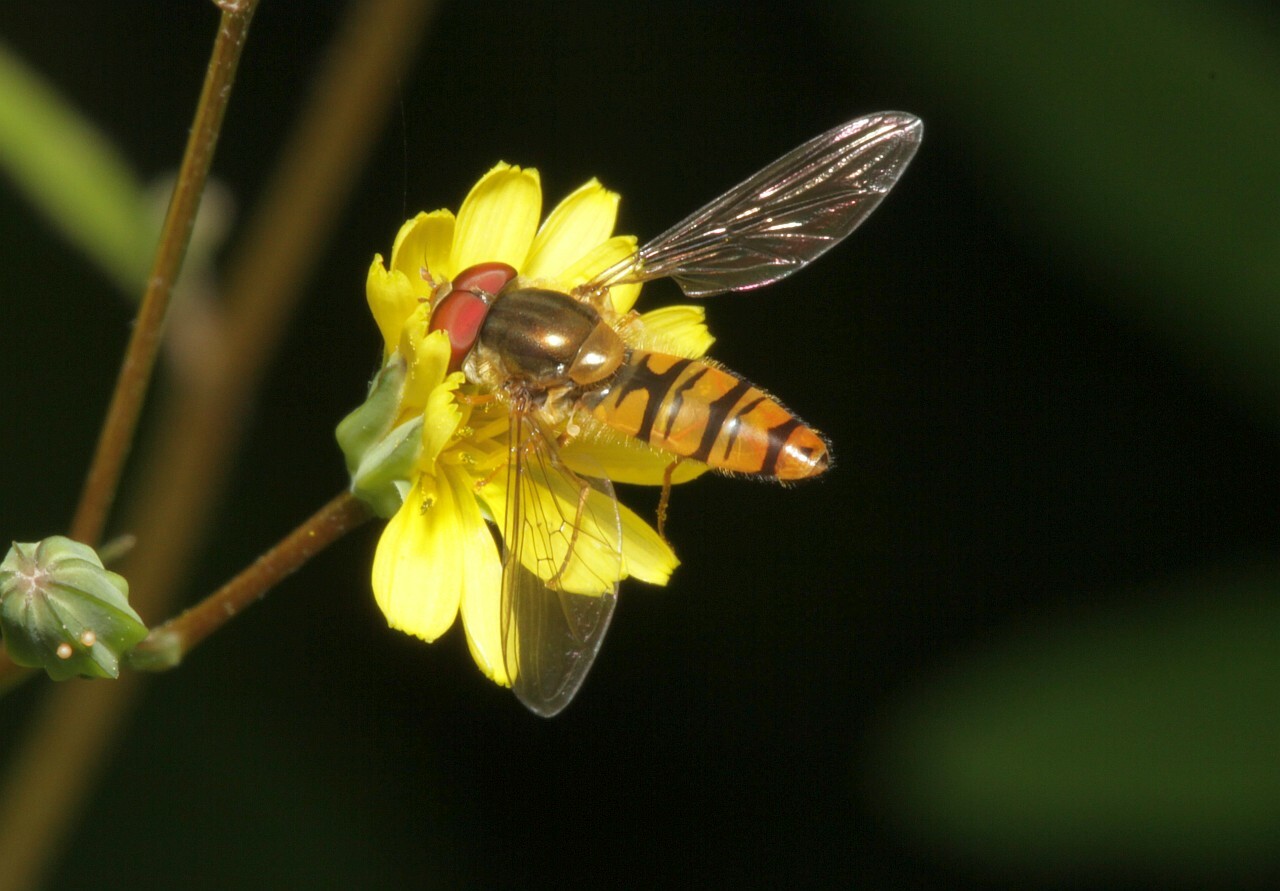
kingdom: Animalia
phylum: Arthropoda
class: Insecta
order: Diptera
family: Syrphidae
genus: Episyrphus
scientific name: Episyrphus balteatus
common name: Marmalade hoverfly
